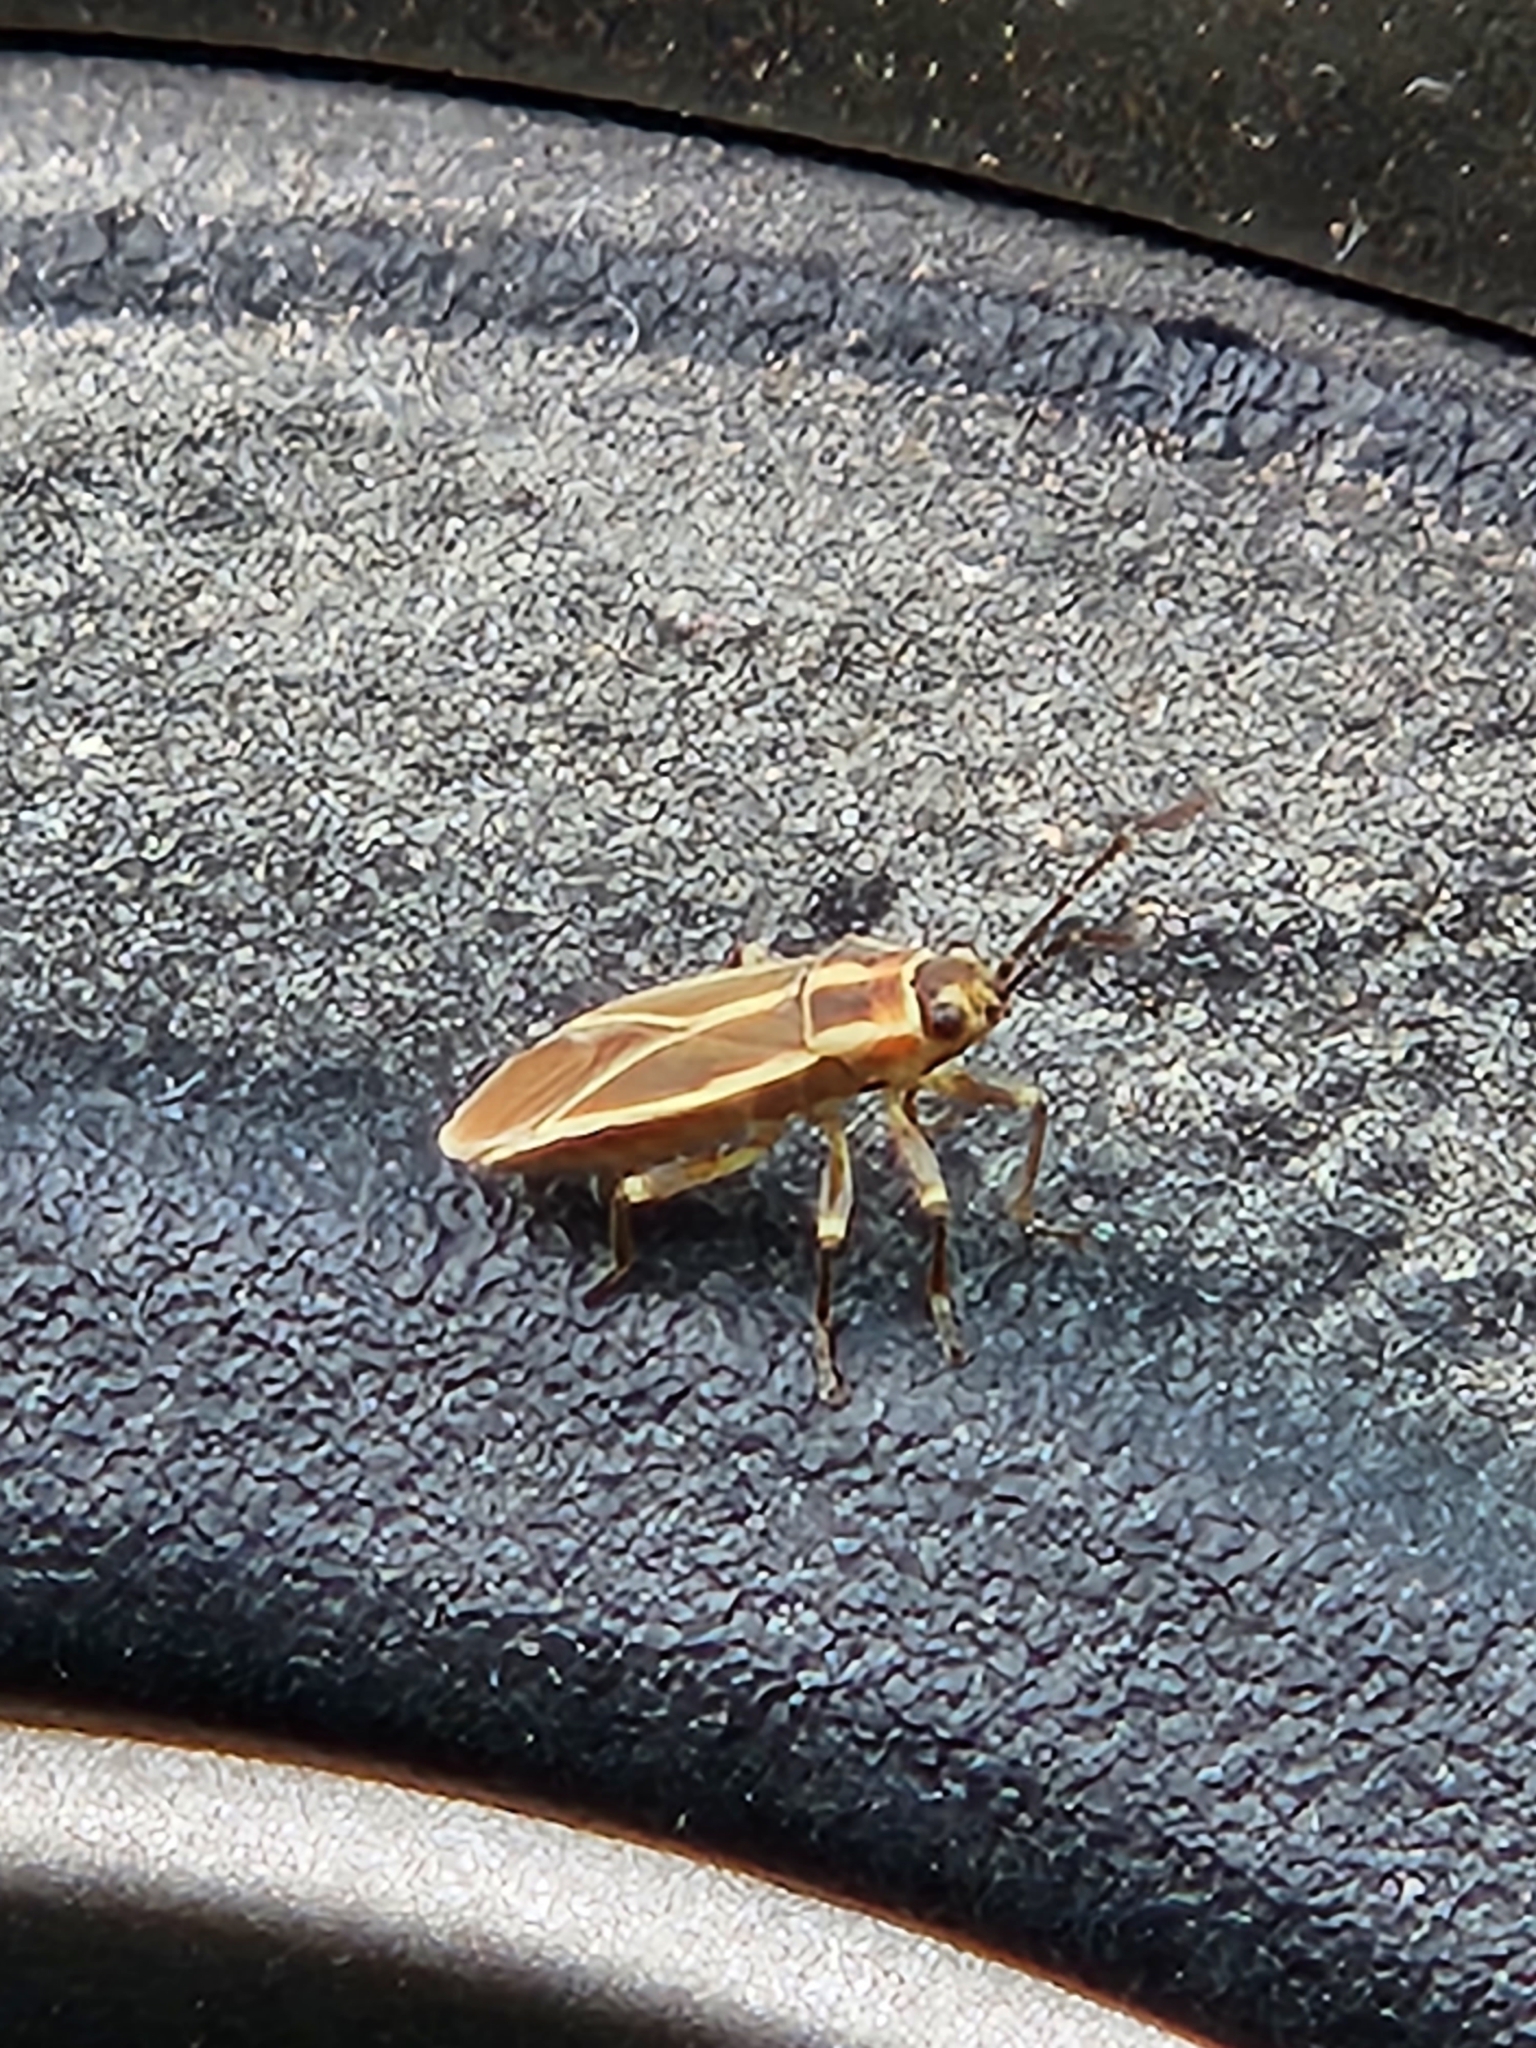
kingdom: Animalia
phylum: Arthropoda
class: Insecta
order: Hemiptera
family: Lygaeidae
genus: Ochrimnus
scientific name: Ochrimnus mimulus
